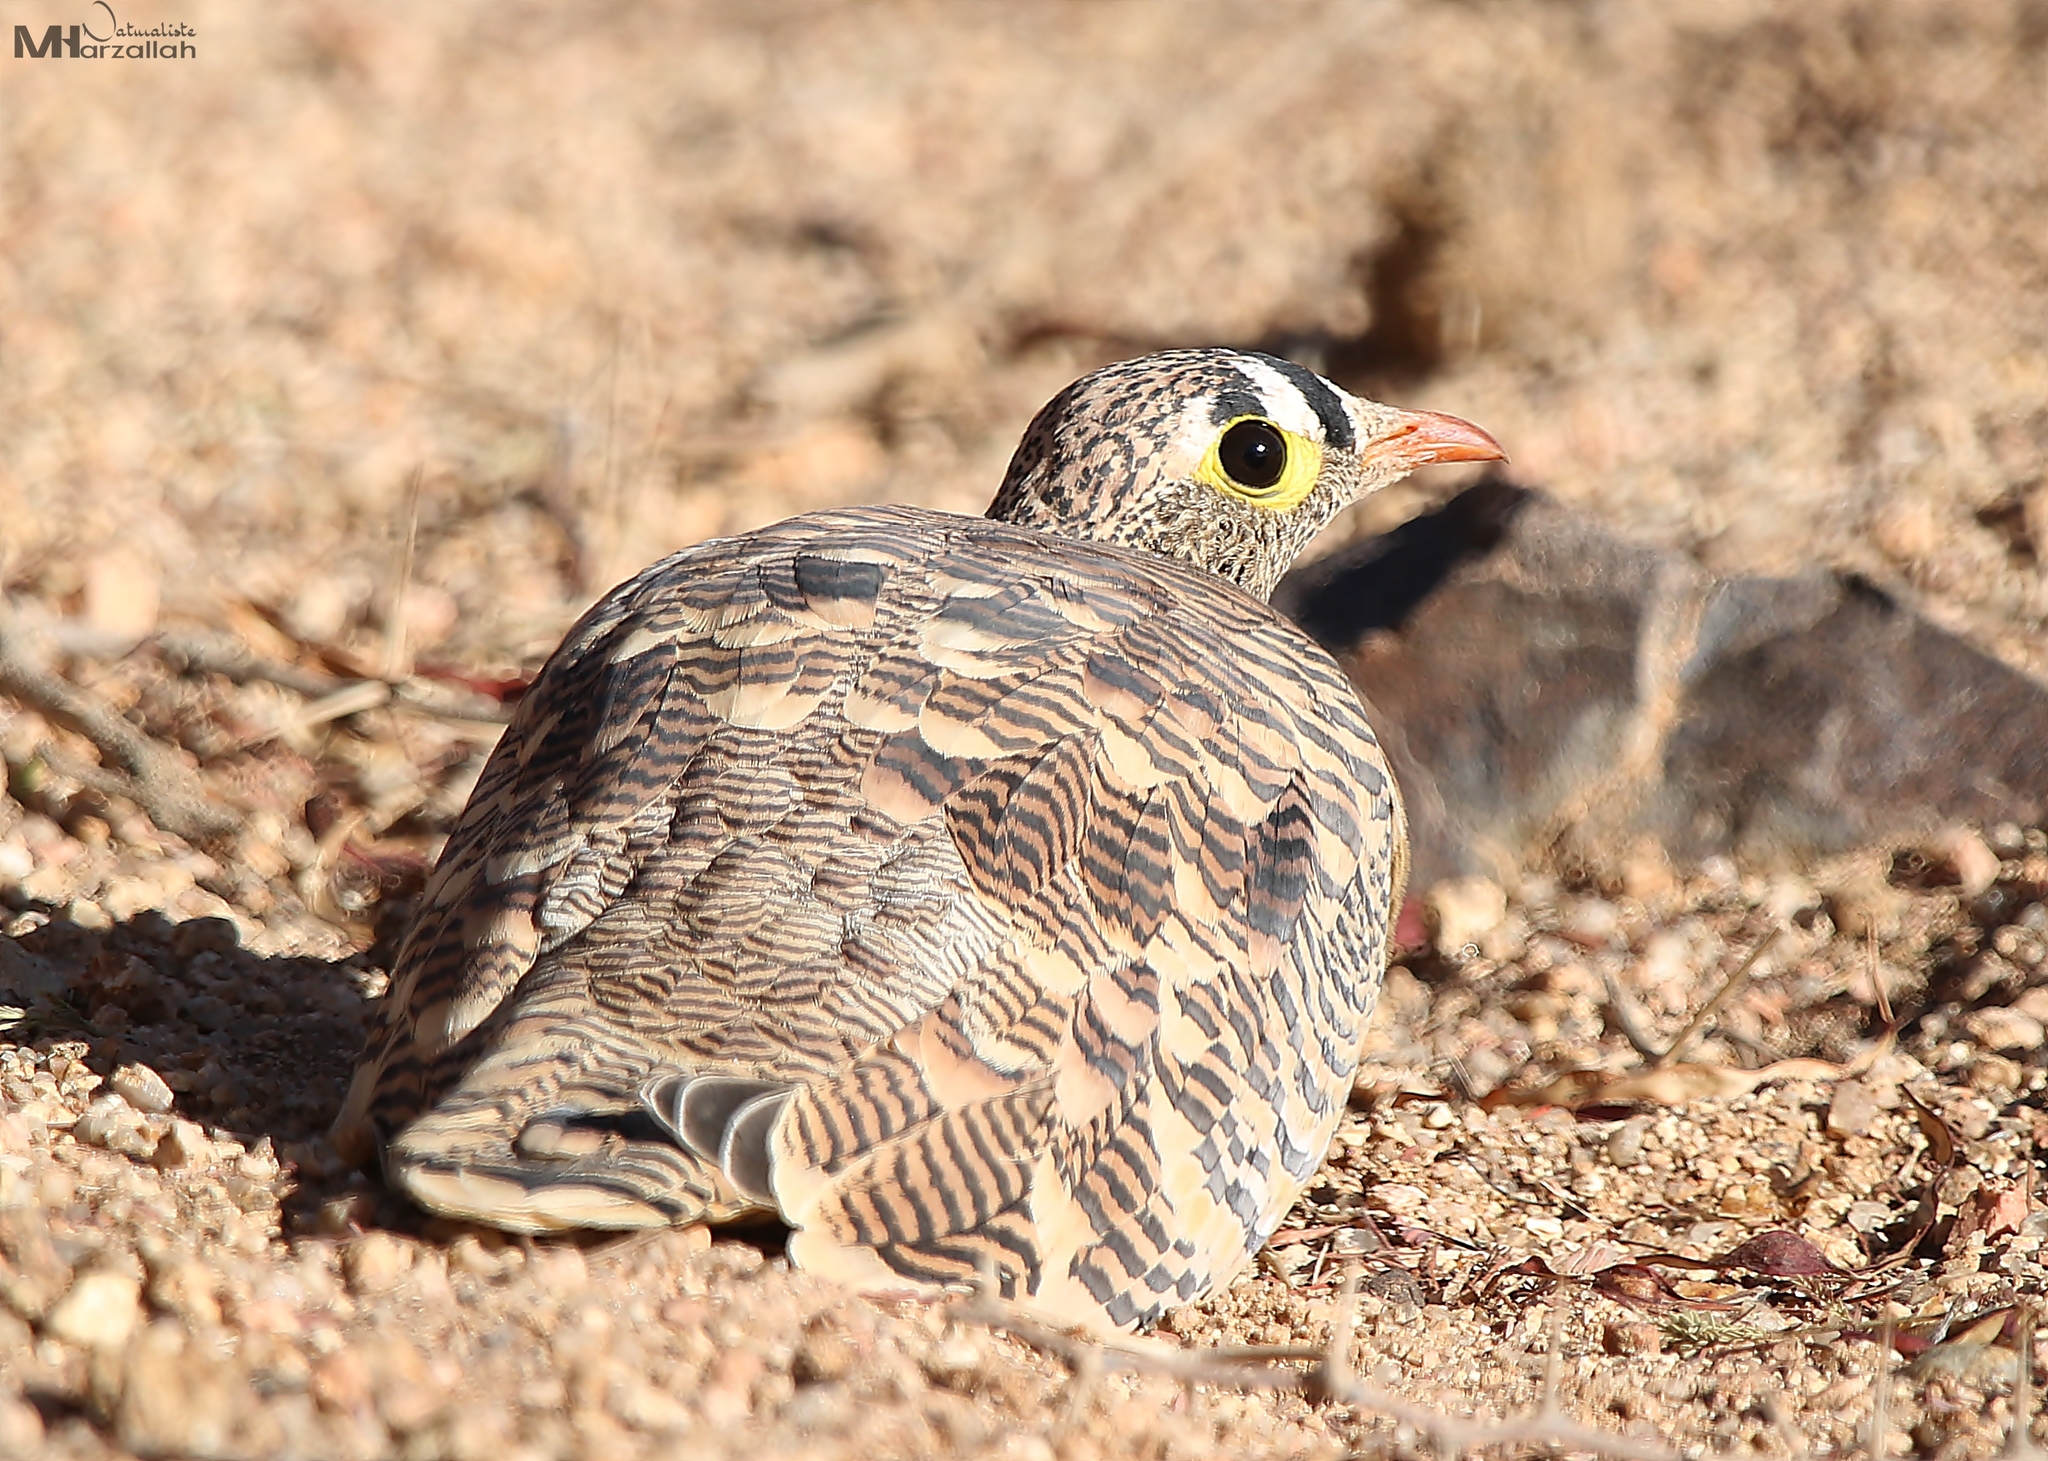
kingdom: Animalia
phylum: Chordata
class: Aves
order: Pteroclidiformes
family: Pteroclididae
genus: Pterocles
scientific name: Pterocles lichtensteinii
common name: Lichtenstein's sandgrouse
